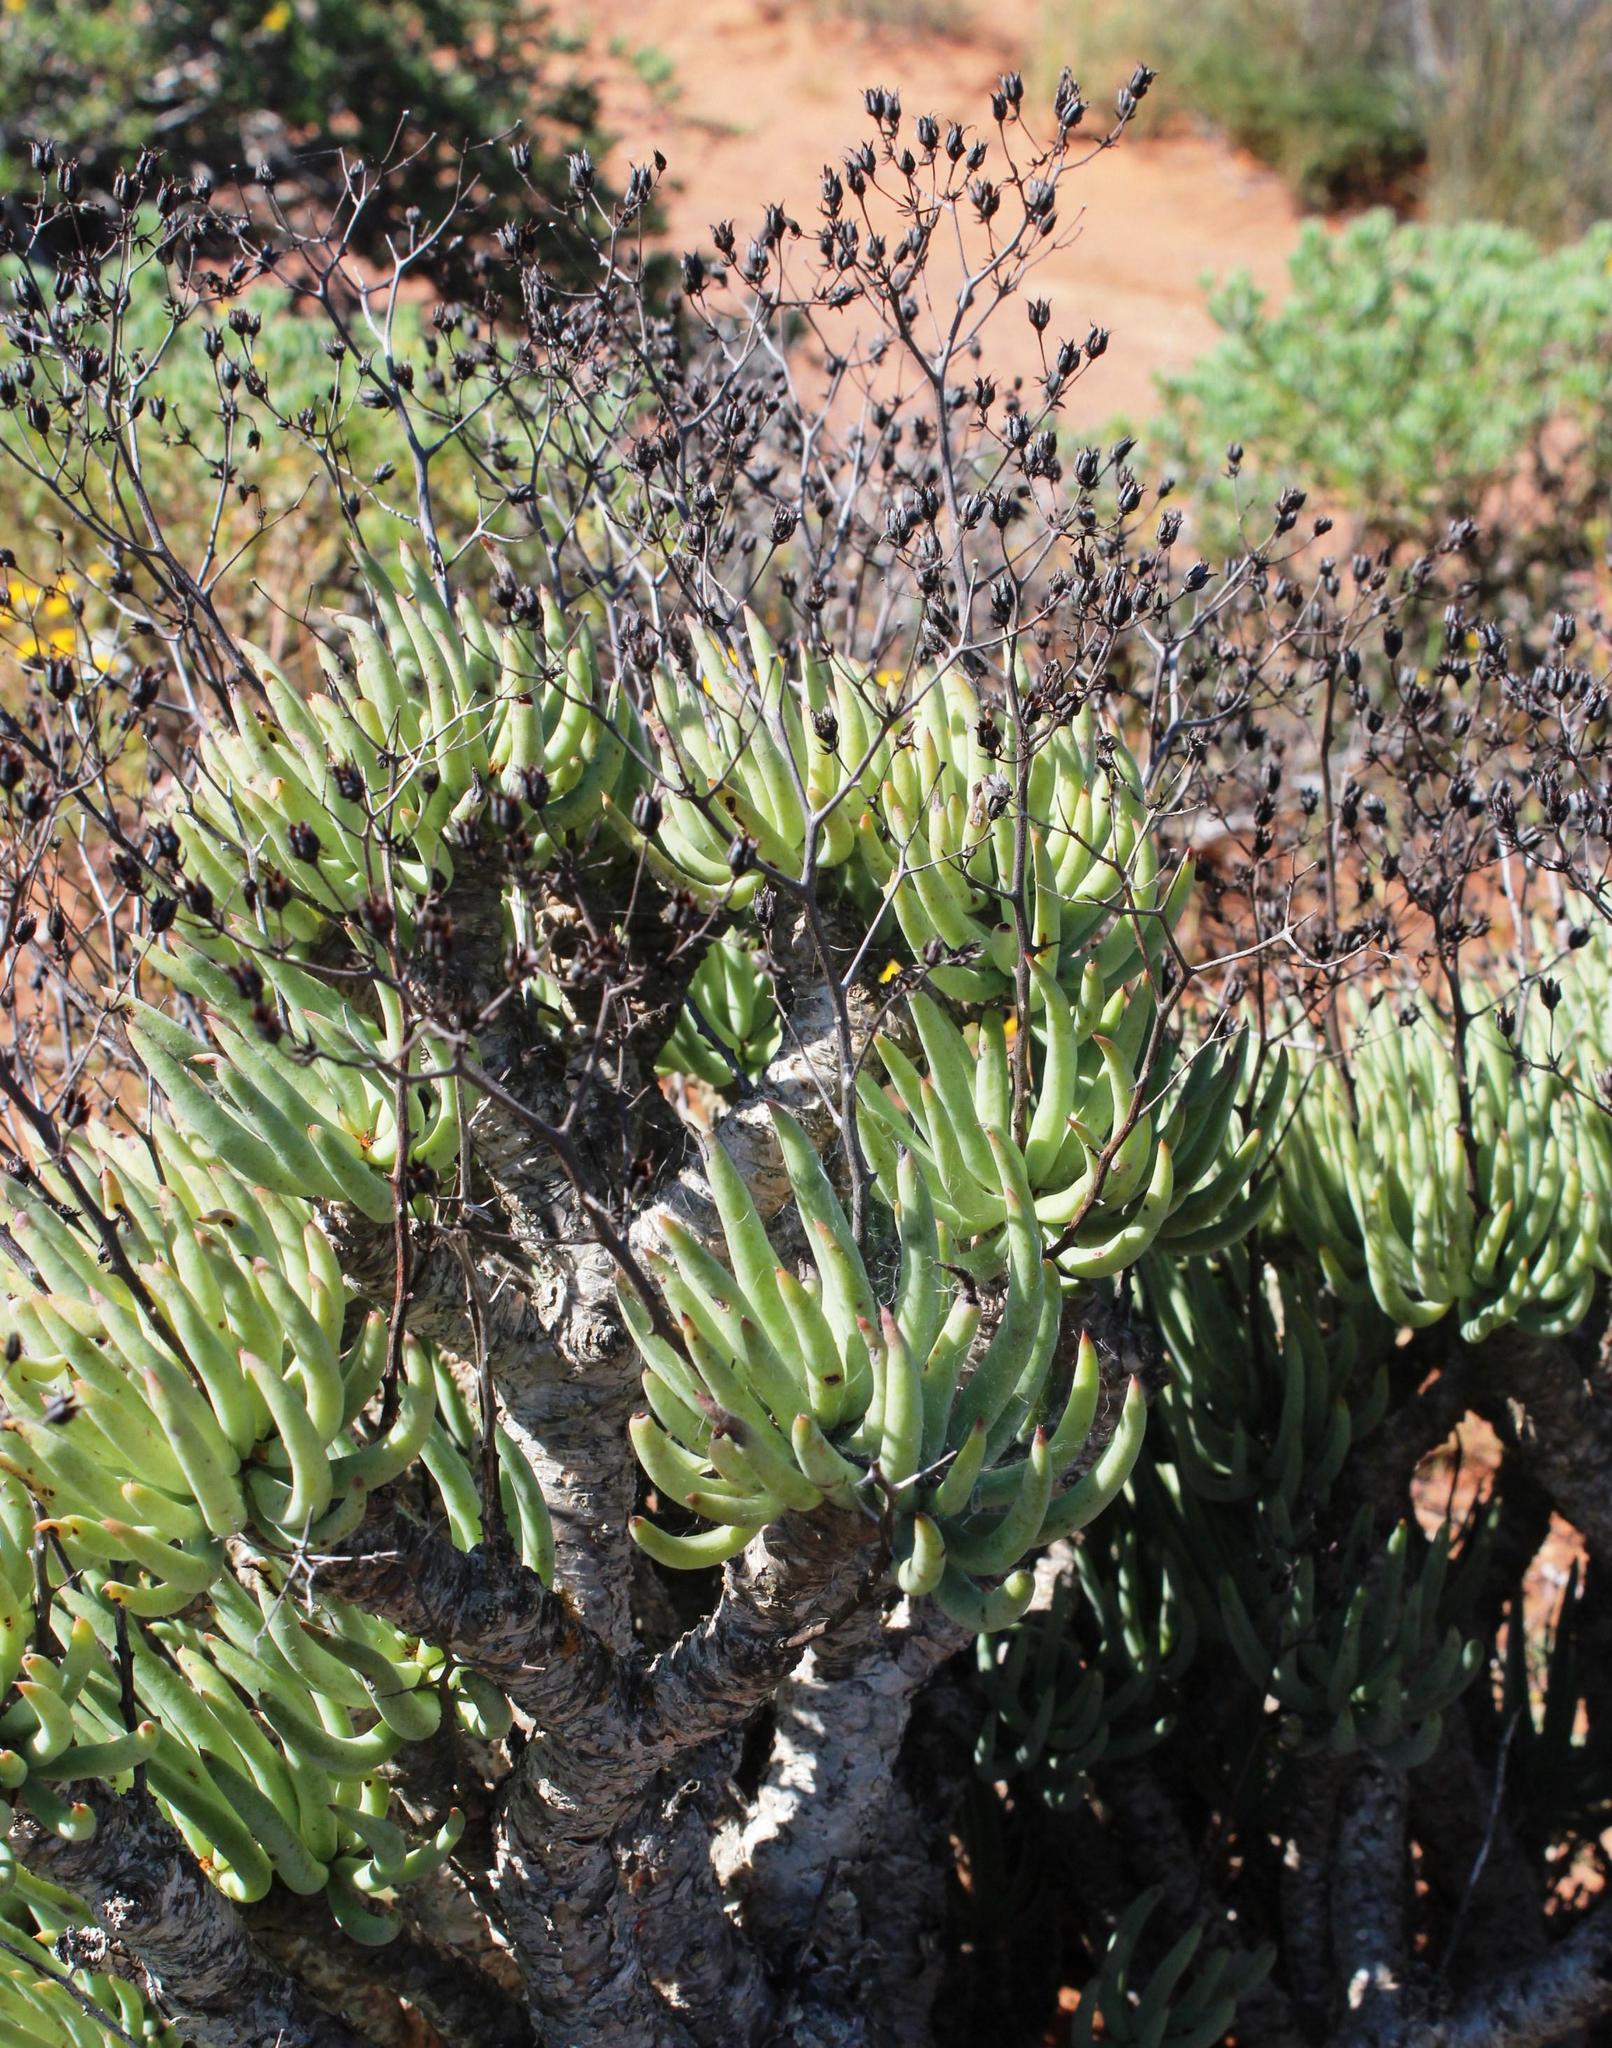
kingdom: Plantae
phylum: Tracheophyta
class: Magnoliopsida
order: Saxifragales
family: Crassulaceae
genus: Tylecodon
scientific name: Tylecodon reticulatus
